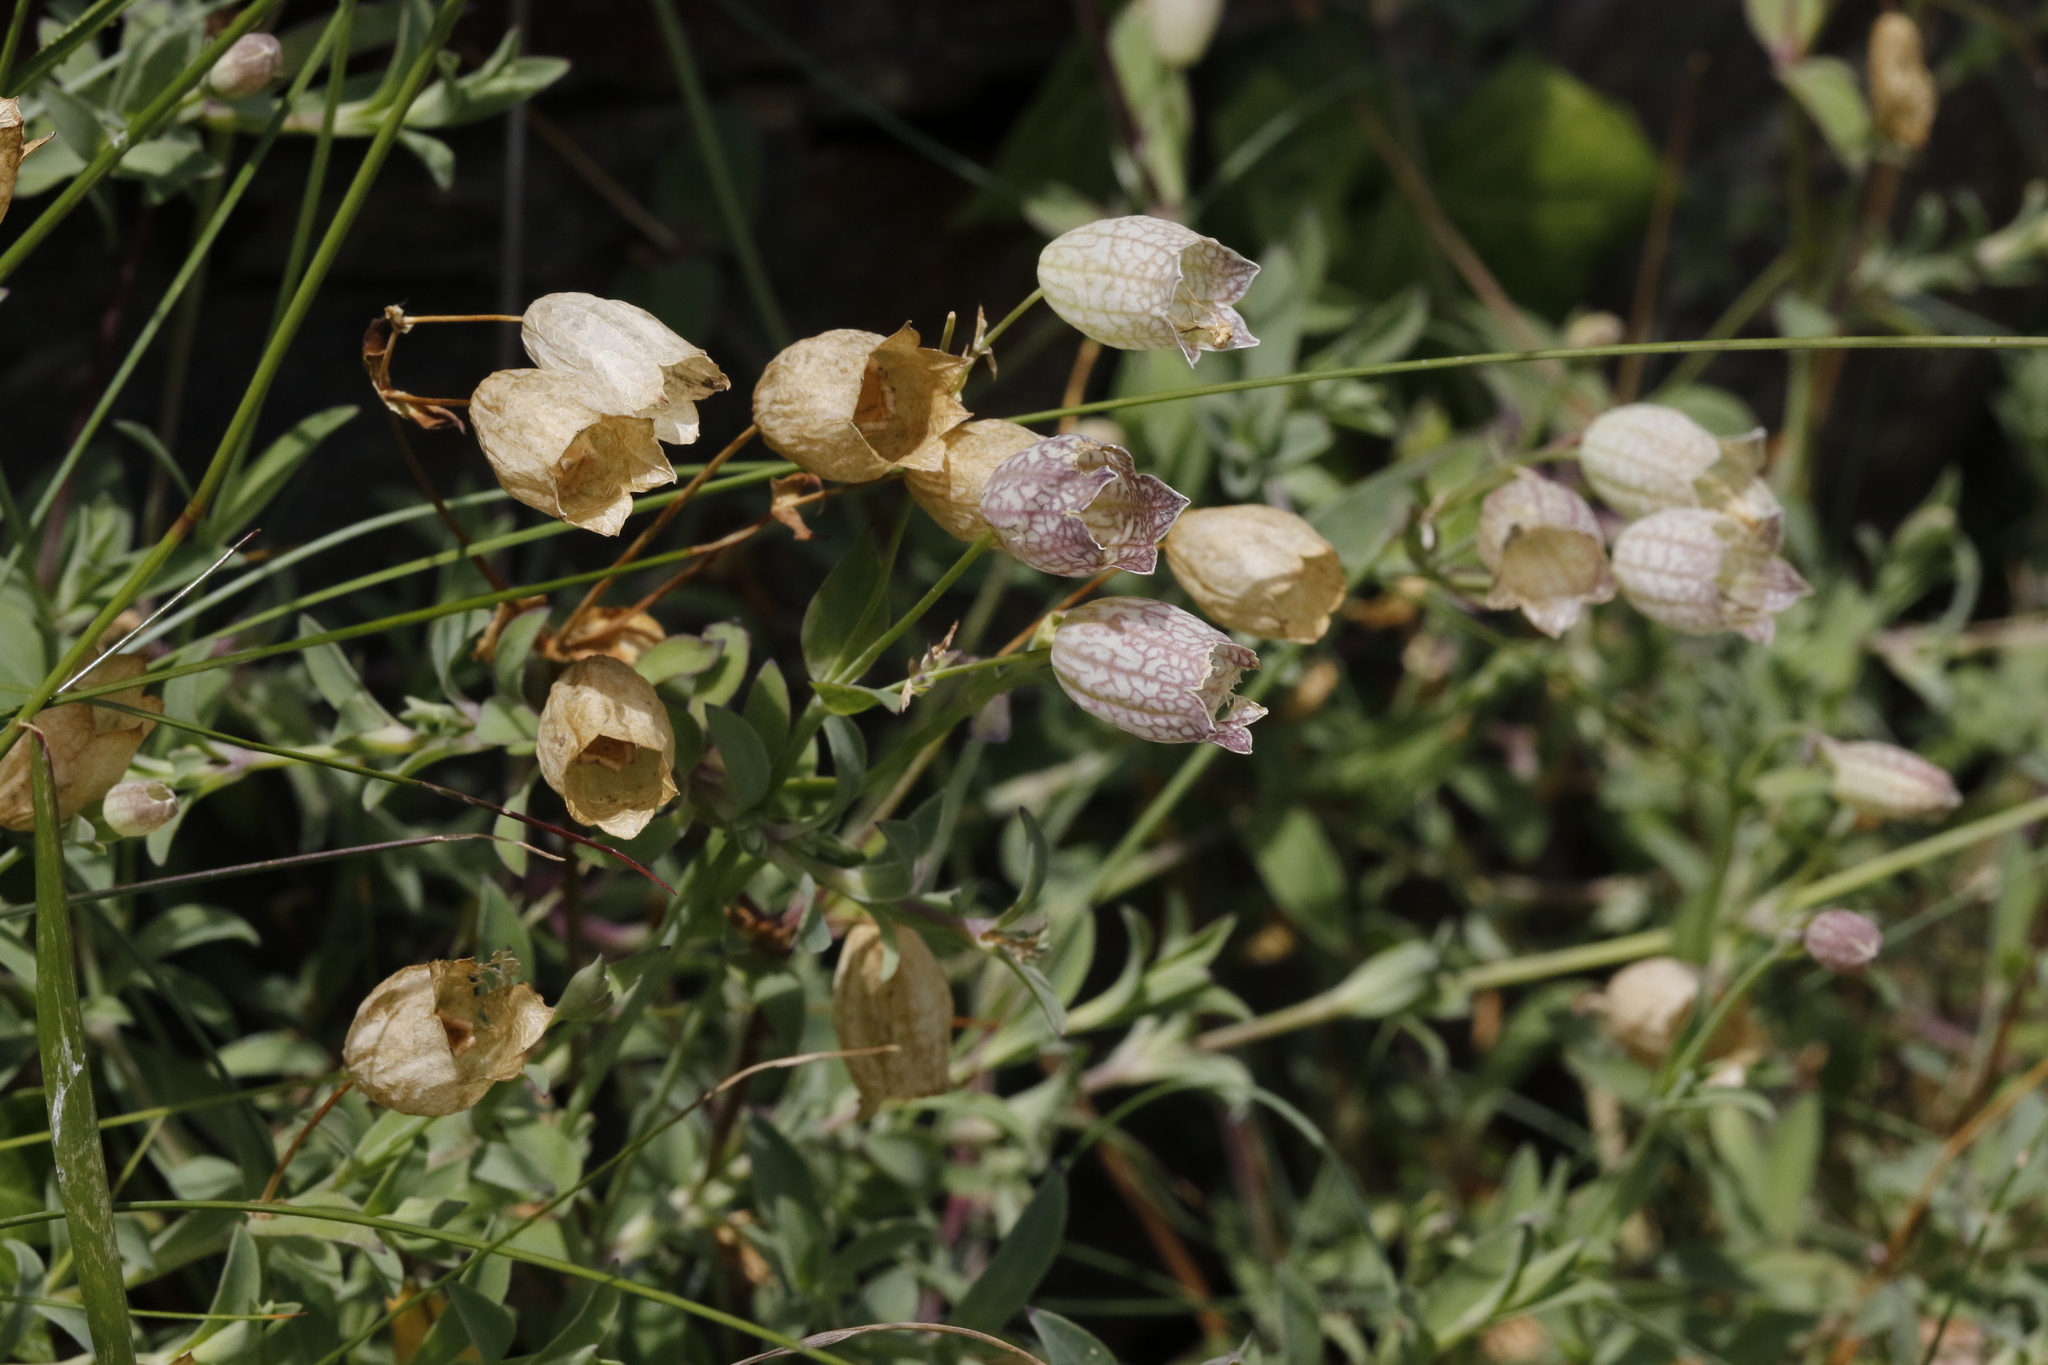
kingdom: Plantae
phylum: Tracheophyta
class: Magnoliopsida
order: Caryophyllales
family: Caryophyllaceae
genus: Silene
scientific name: Silene uniflora
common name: Sea campion
